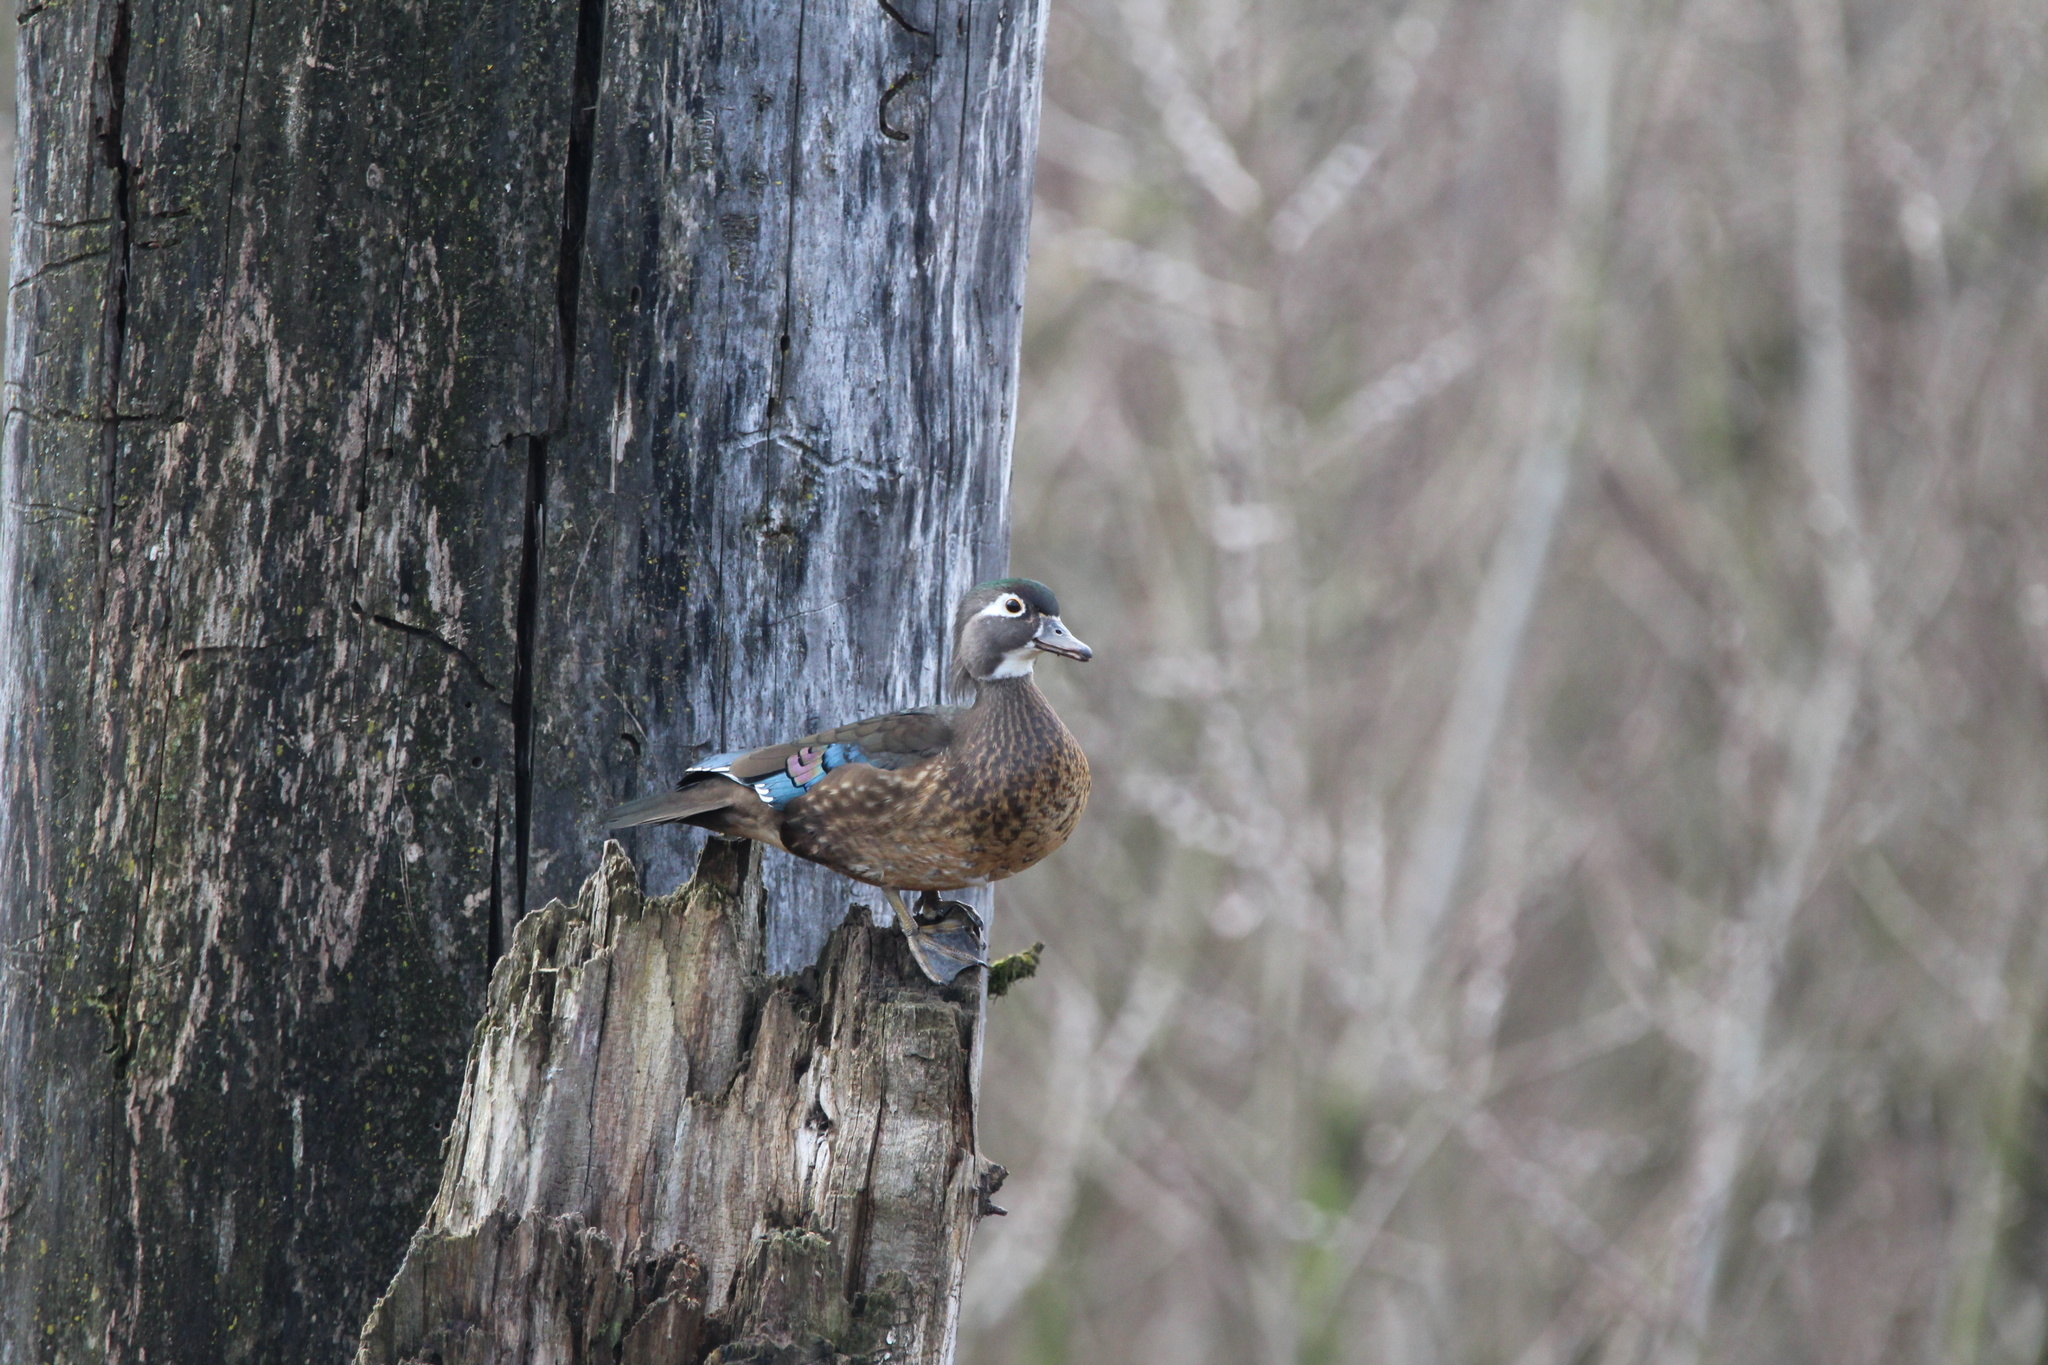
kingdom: Animalia
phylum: Chordata
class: Aves
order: Anseriformes
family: Anatidae
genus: Aix
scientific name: Aix sponsa
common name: Wood duck
